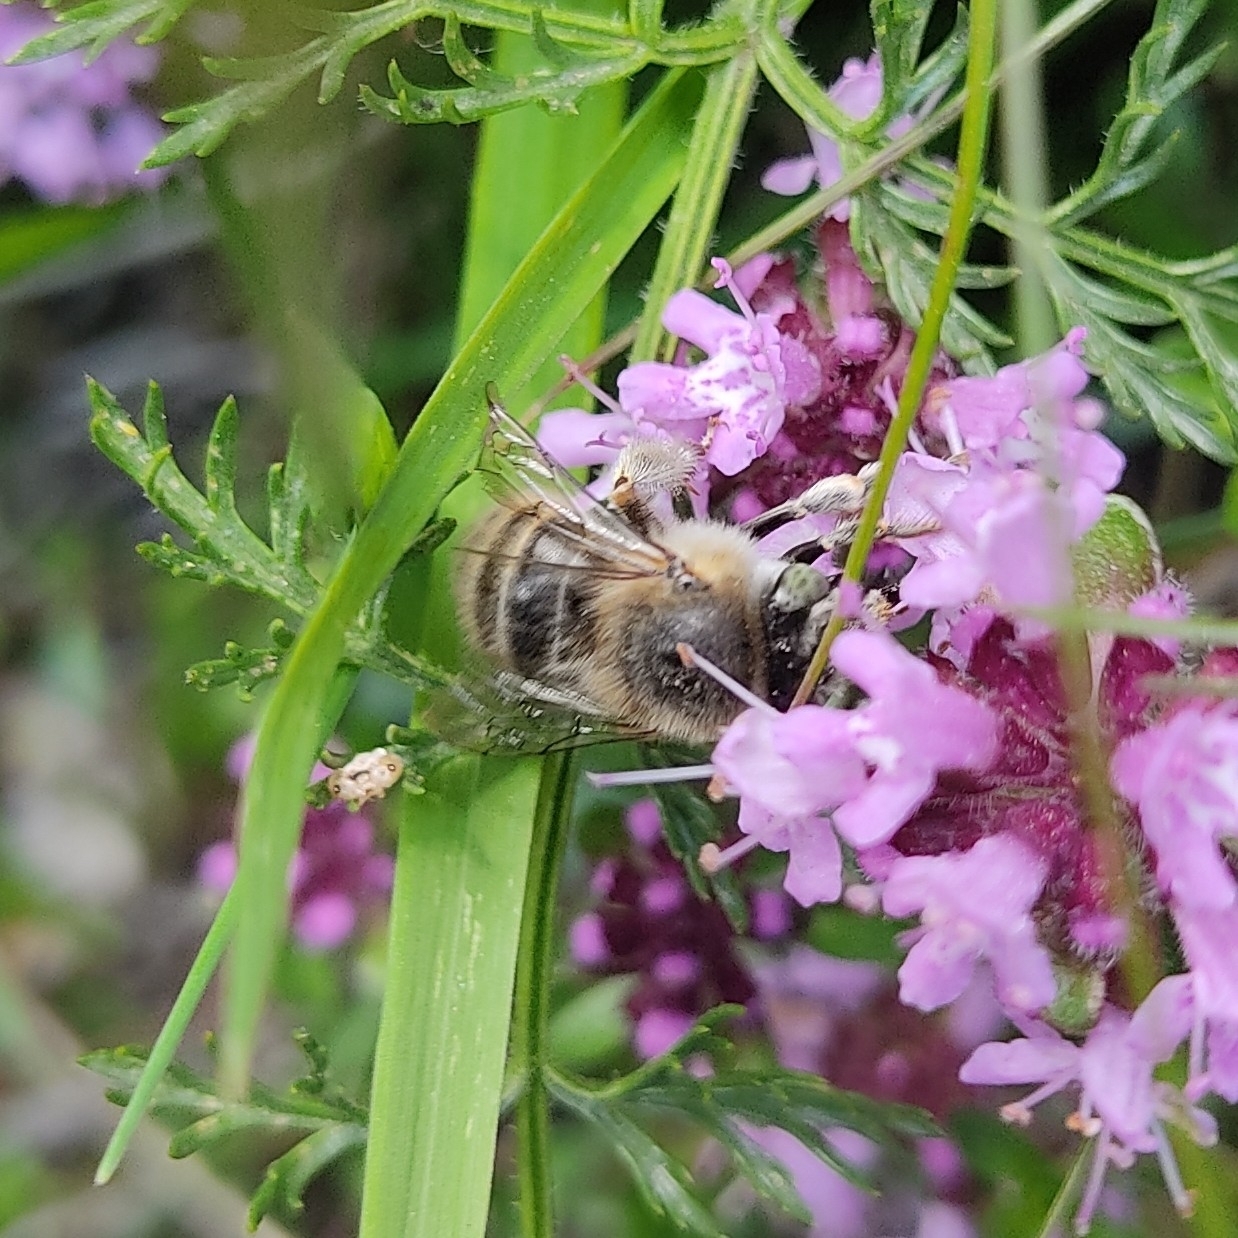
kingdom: Animalia
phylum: Arthropoda
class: Insecta
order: Hymenoptera
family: Apidae
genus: Anthophora
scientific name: Anthophora quadrimaculata
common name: Four-banded flower bee
